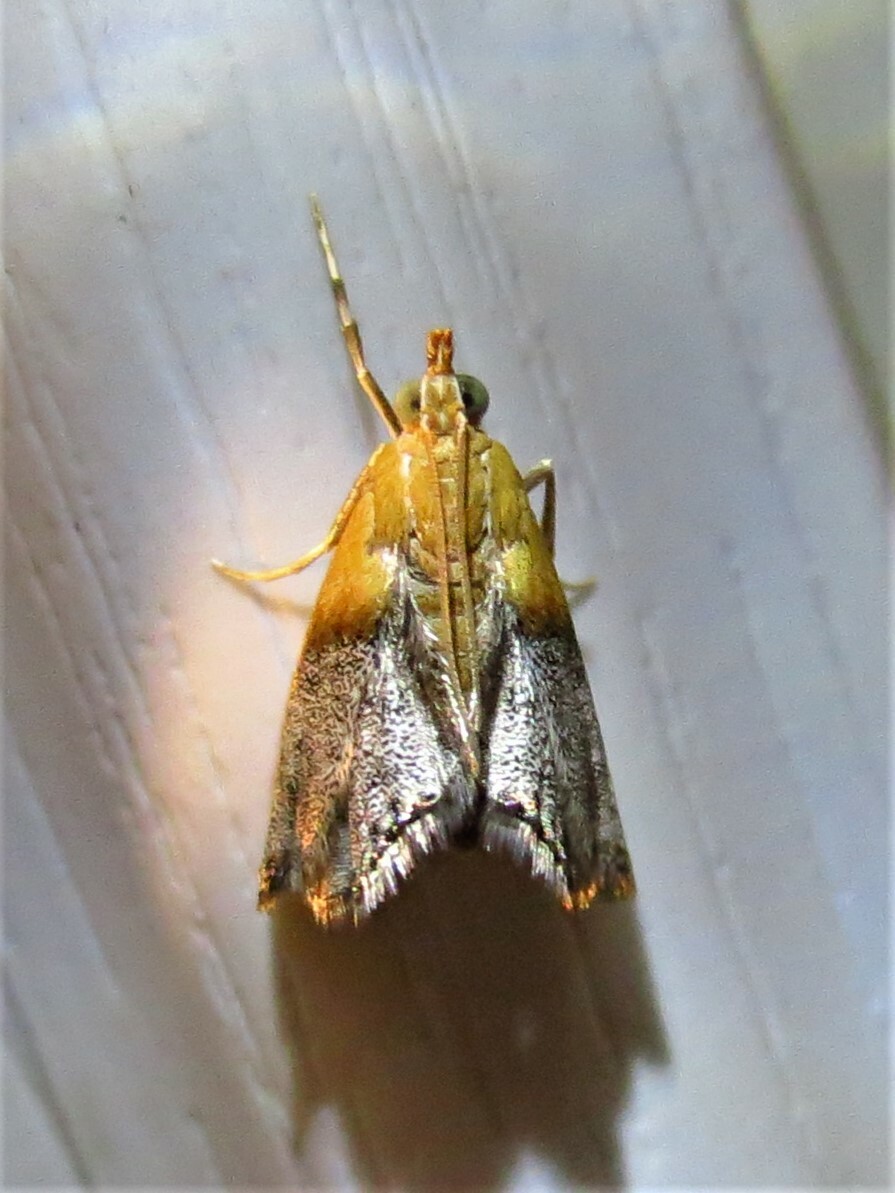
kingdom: Animalia
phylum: Arthropoda
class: Insecta
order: Lepidoptera
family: Crambidae
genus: Chalcoela
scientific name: Chalcoela iphitalis
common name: Sooty-winged chalcoela moth
